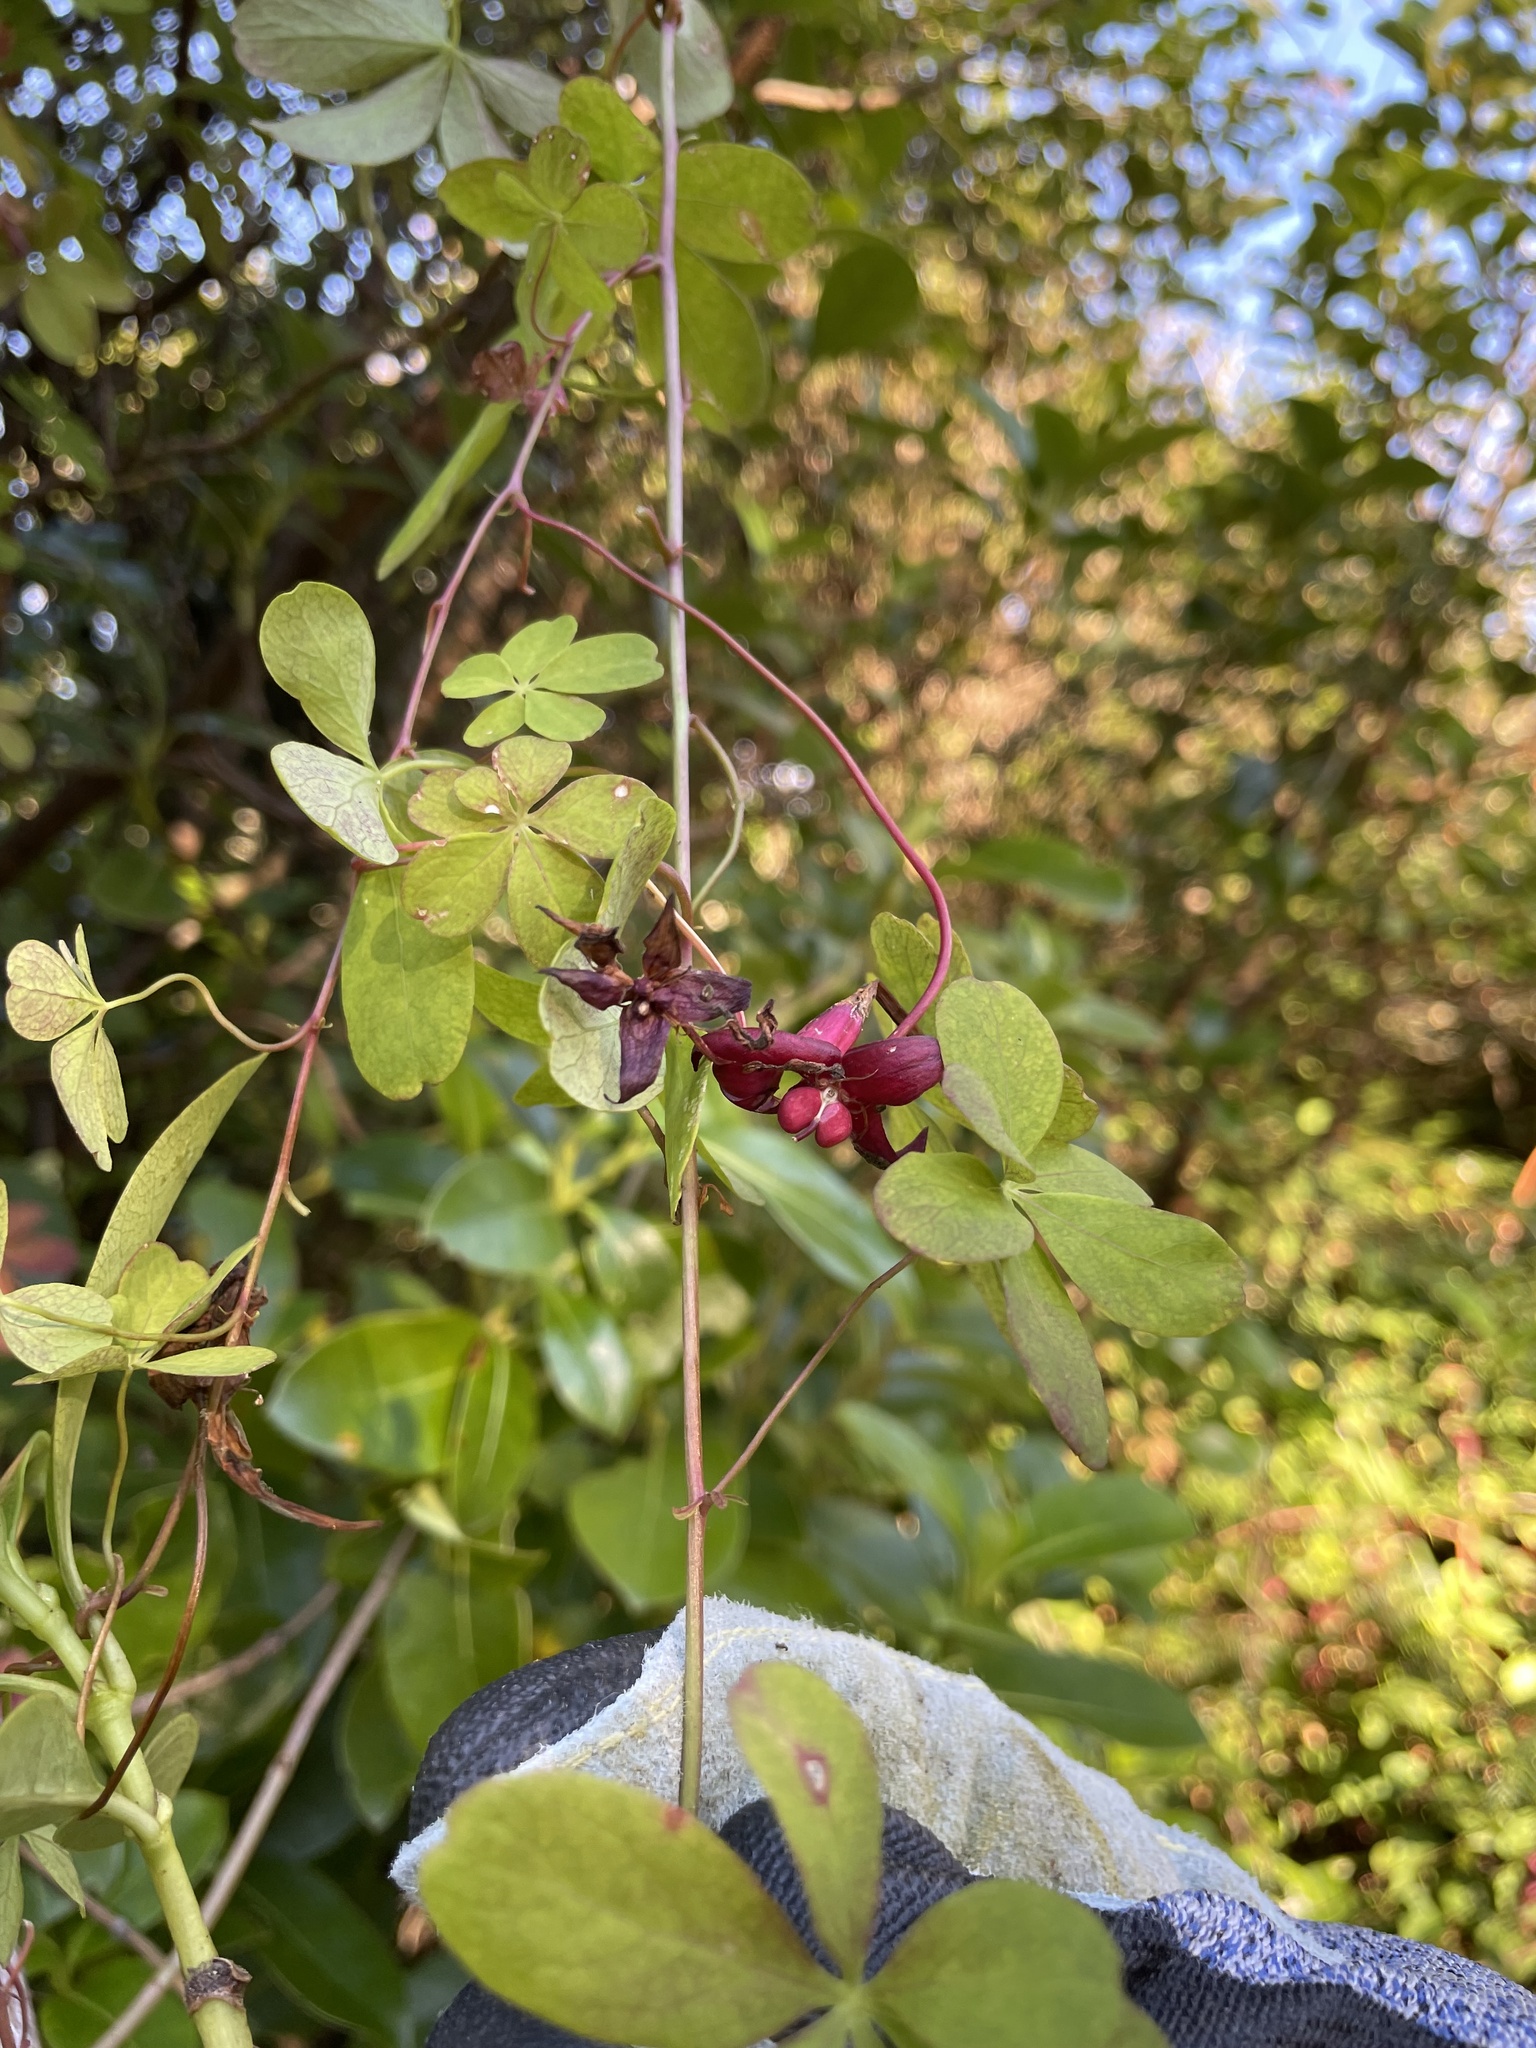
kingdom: Plantae
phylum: Tracheophyta
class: Magnoliopsida
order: Brassicales
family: Tropaeolaceae
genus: Tropaeolum
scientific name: Tropaeolum speciosum
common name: Flame nasturtium
